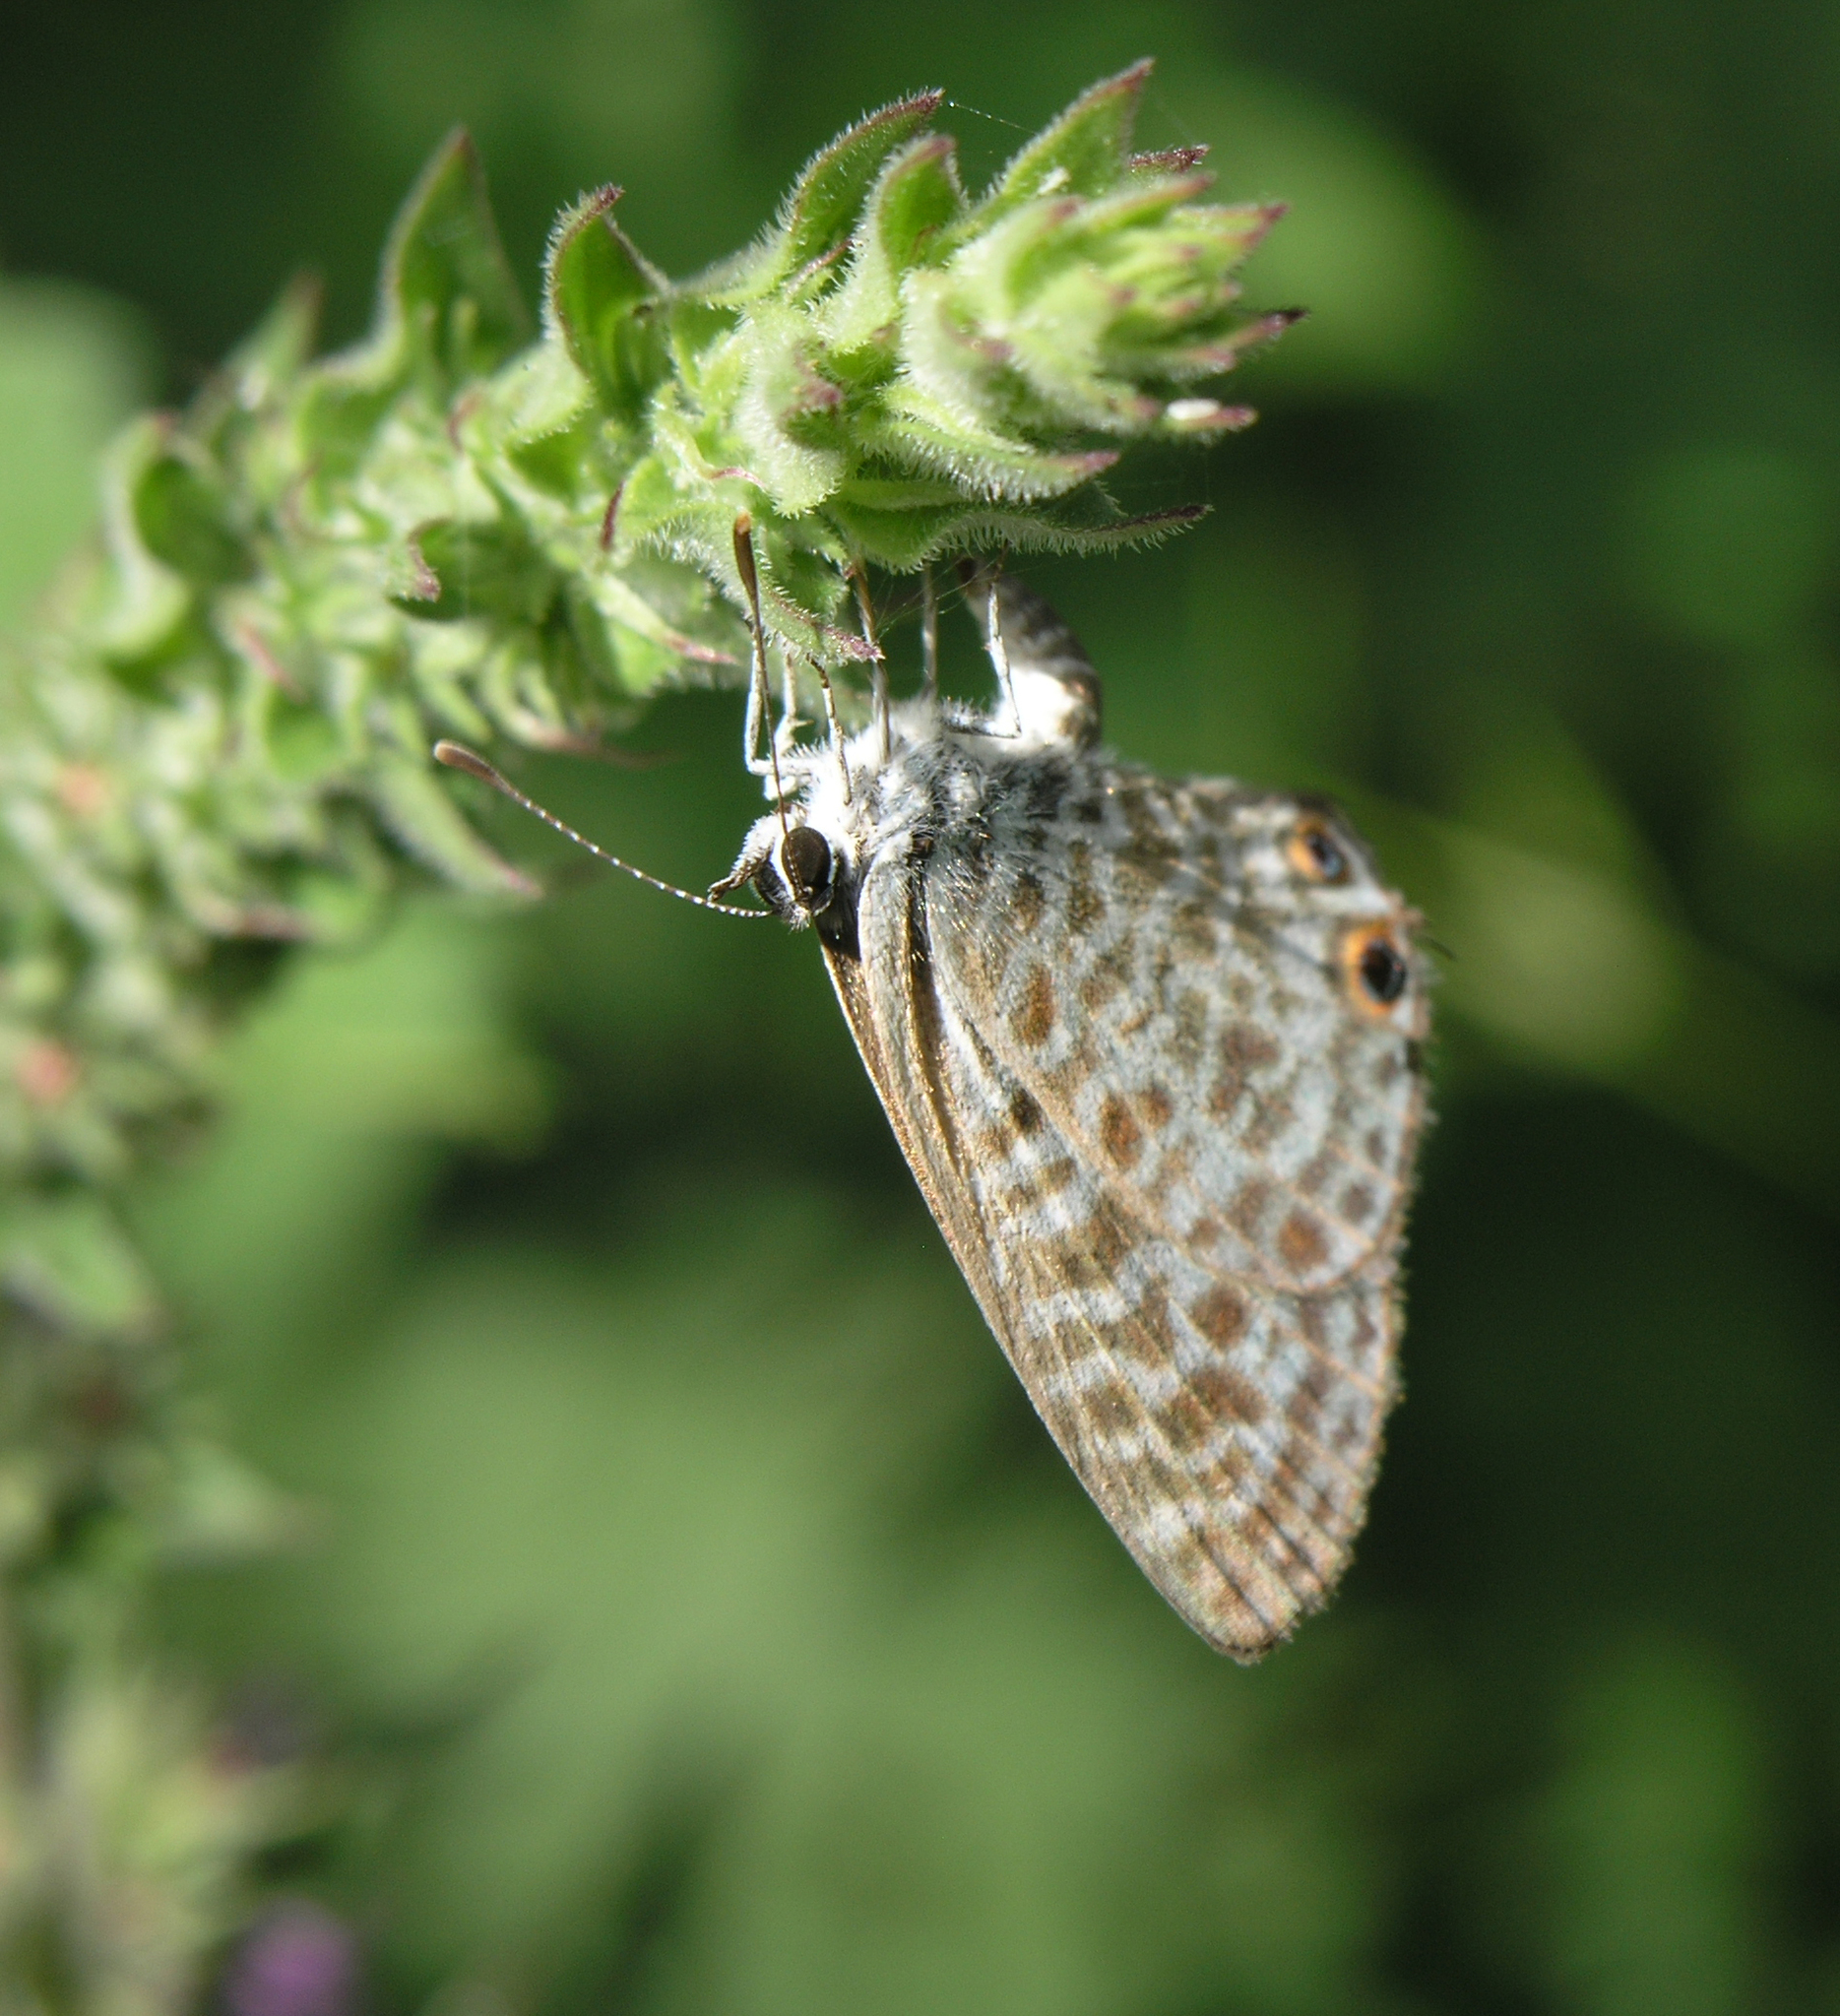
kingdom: Animalia
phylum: Arthropoda
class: Insecta
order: Lepidoptera
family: Lycaenidae
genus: Leptotes
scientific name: Leptotes pirithous
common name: Lang's short-tailed blue
